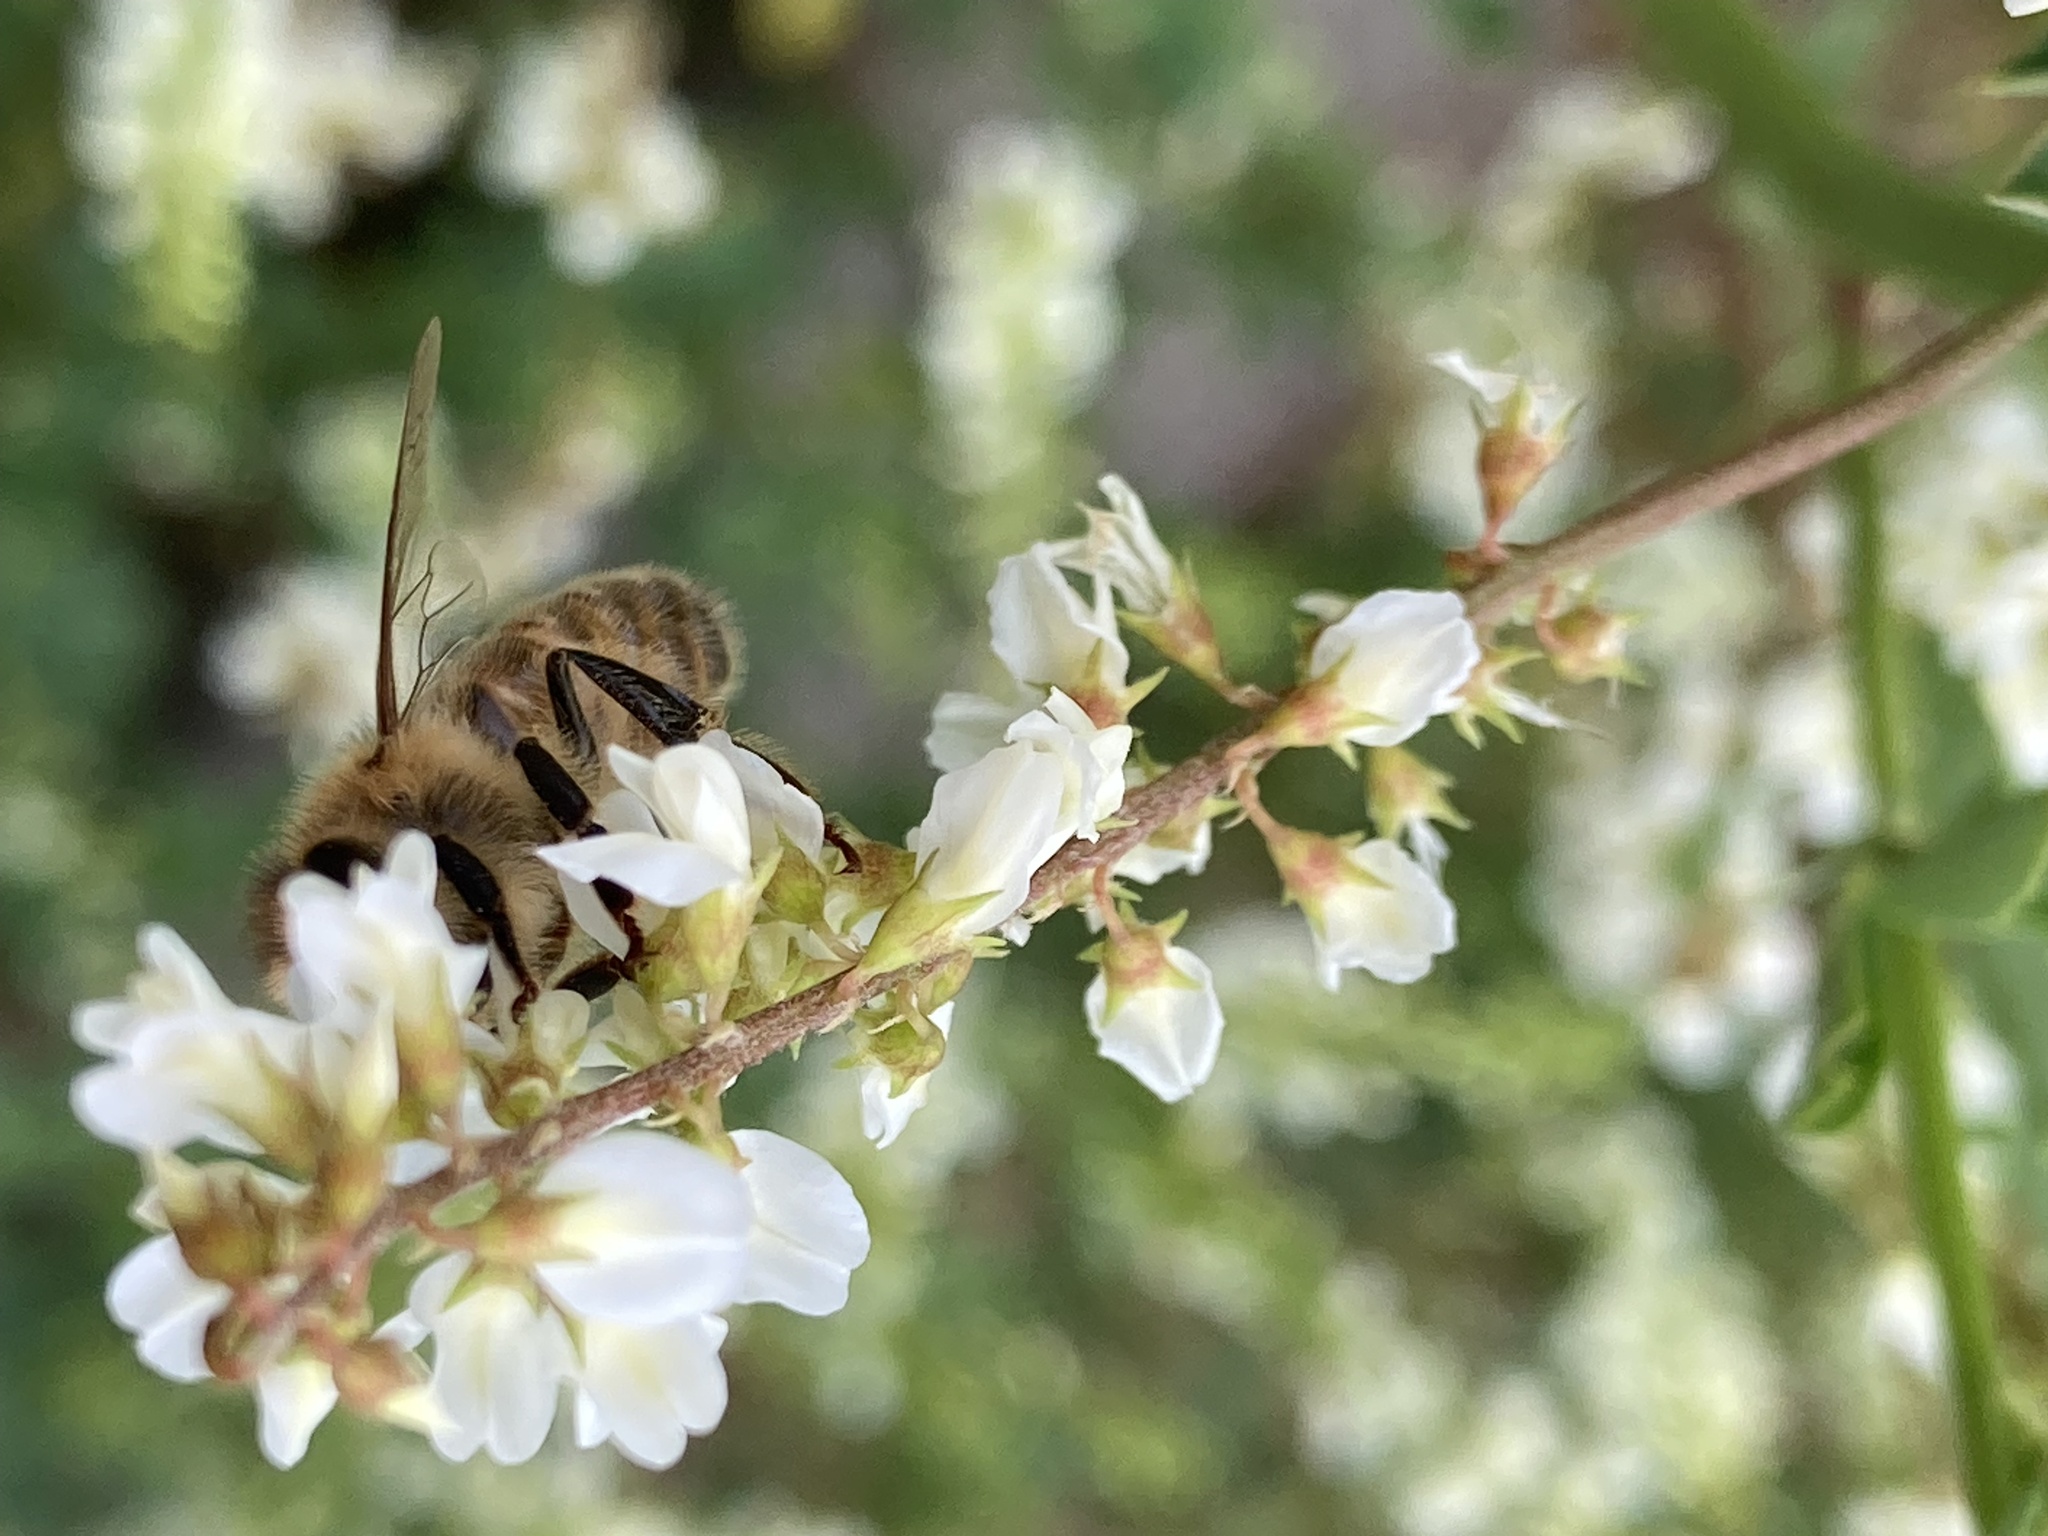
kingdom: Animalia
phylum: Arthropoda
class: Insecta
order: Hymenoptera
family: Apidae
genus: Apis
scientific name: Apis mellifera
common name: Honey bee
